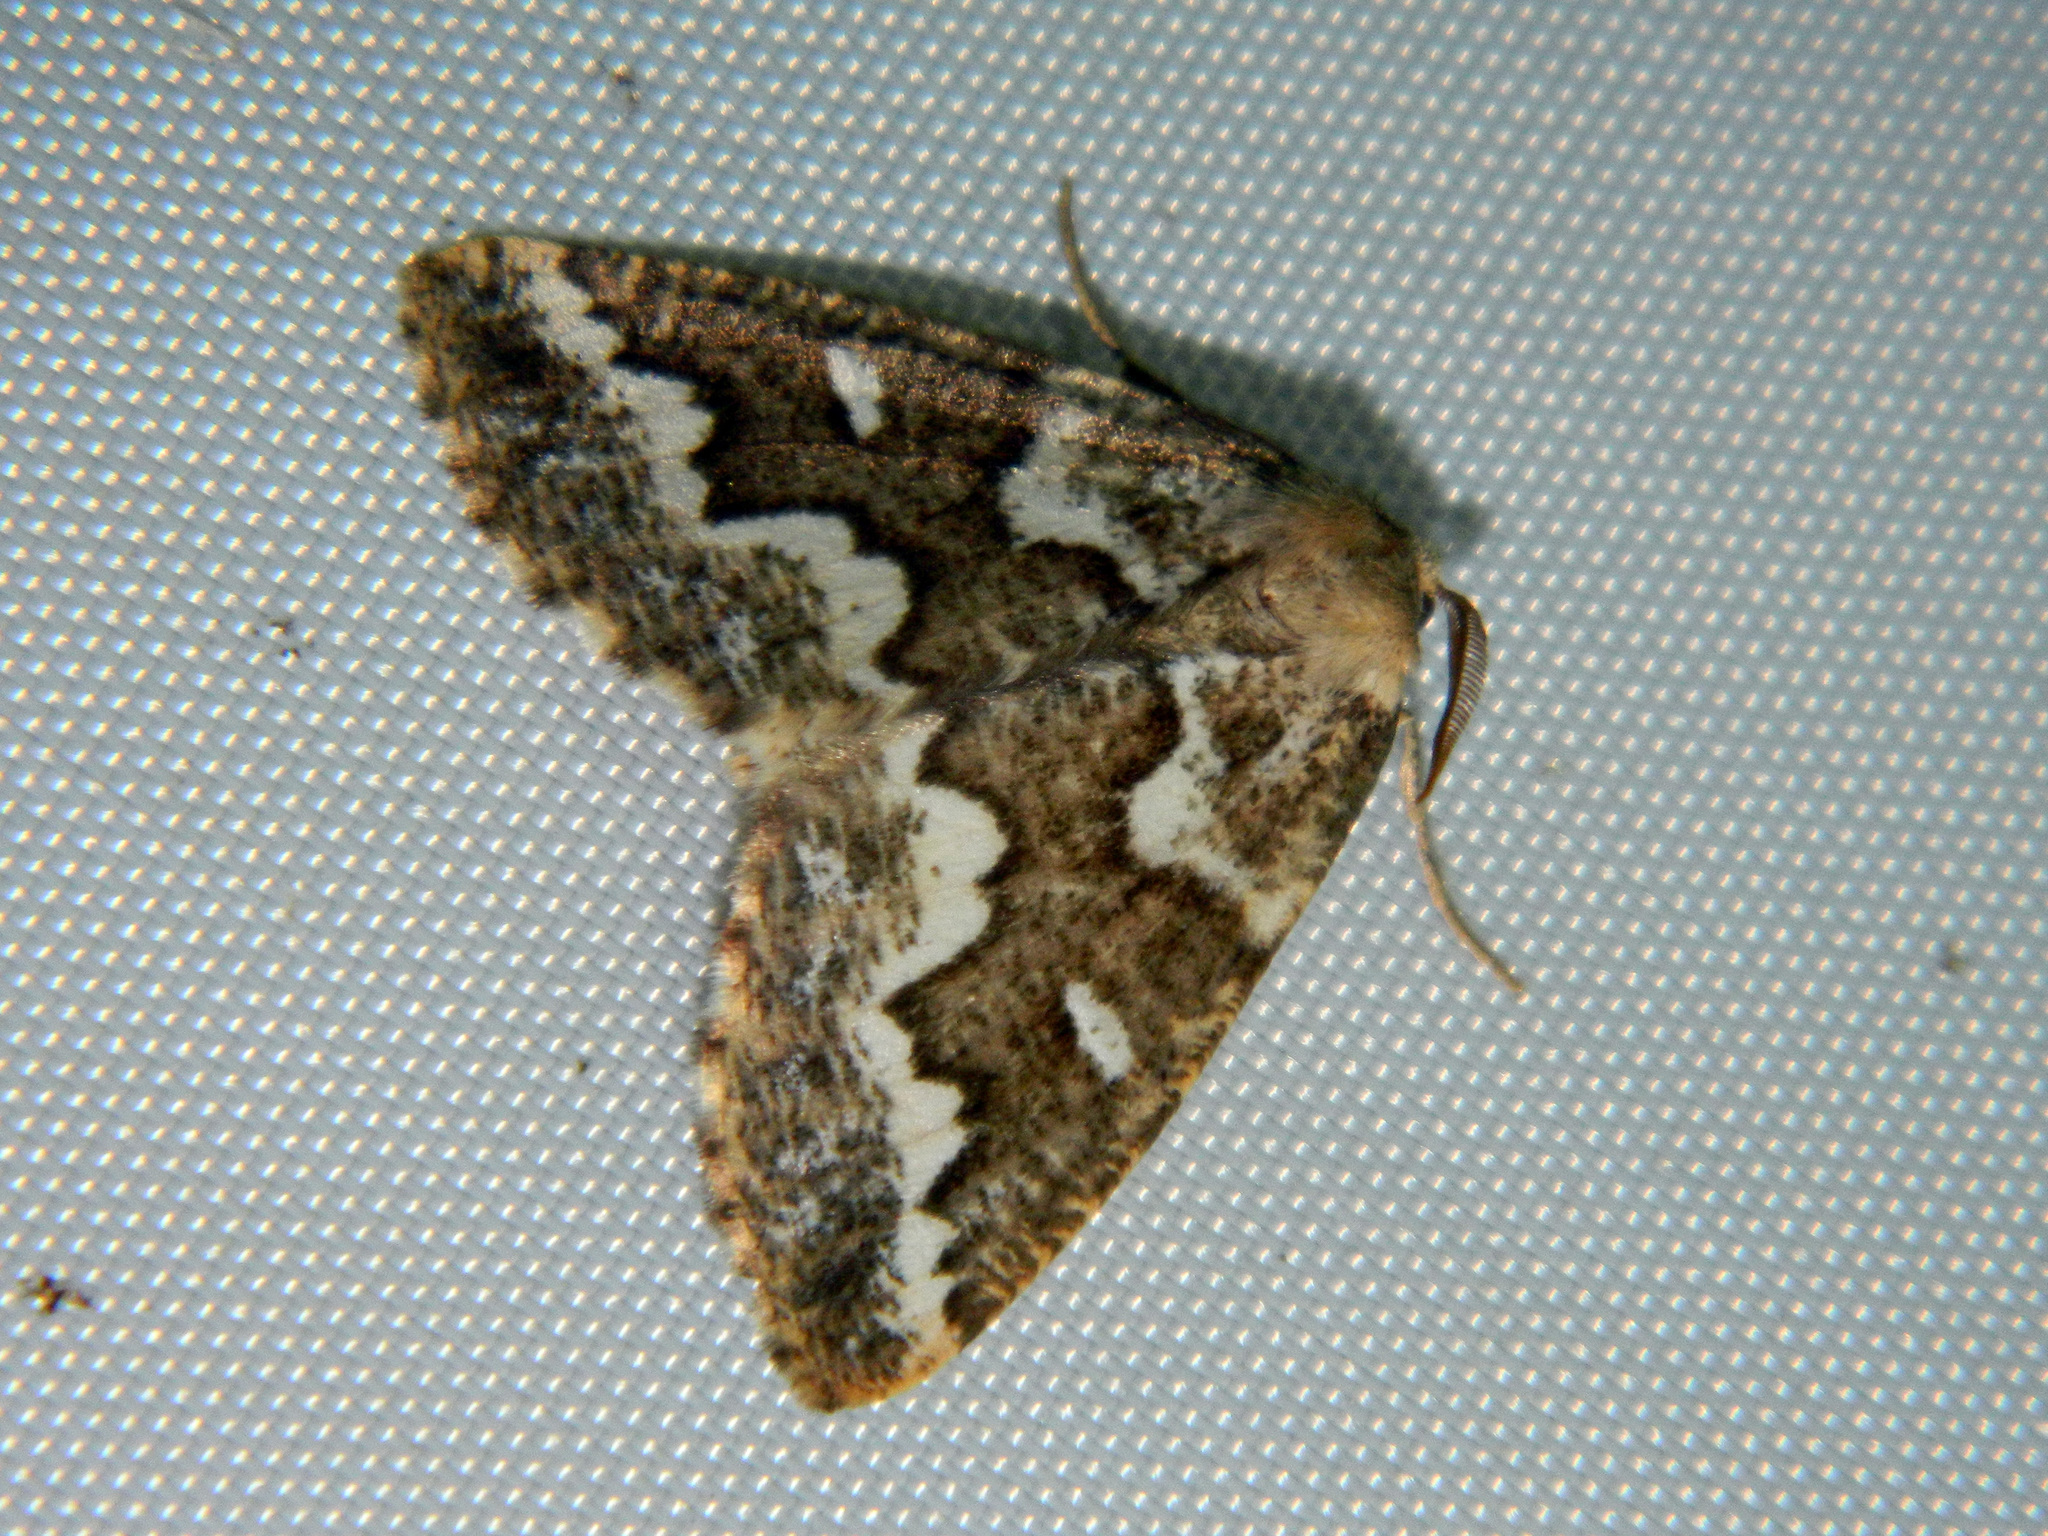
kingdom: Animalia
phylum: Arthropoda
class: Insecta
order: Lepidoptera
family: Geometridae
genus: Caripeta
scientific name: Caripeta divisata
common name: Gray spruce looper
